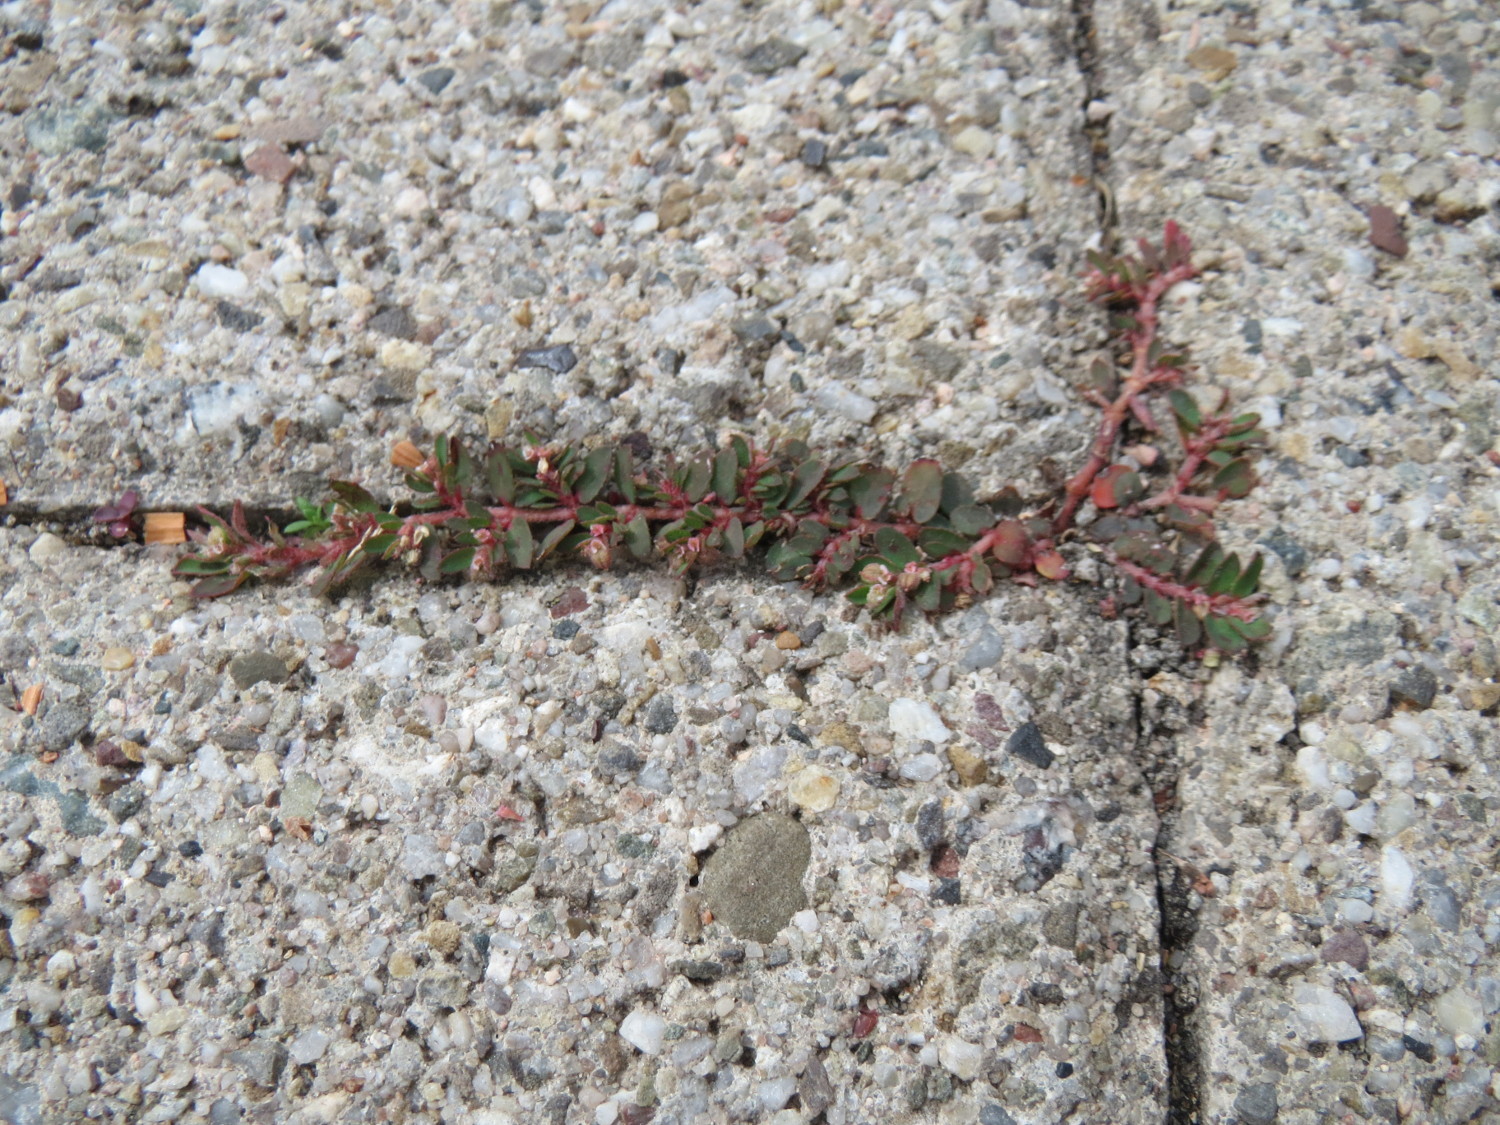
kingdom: Plantae
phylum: Tracheophyta
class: Magnoliopsida
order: Malpighiales
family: Euphorbiaceae
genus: Euphorbia
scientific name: Euphorbia maculata
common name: Spotted spurge
